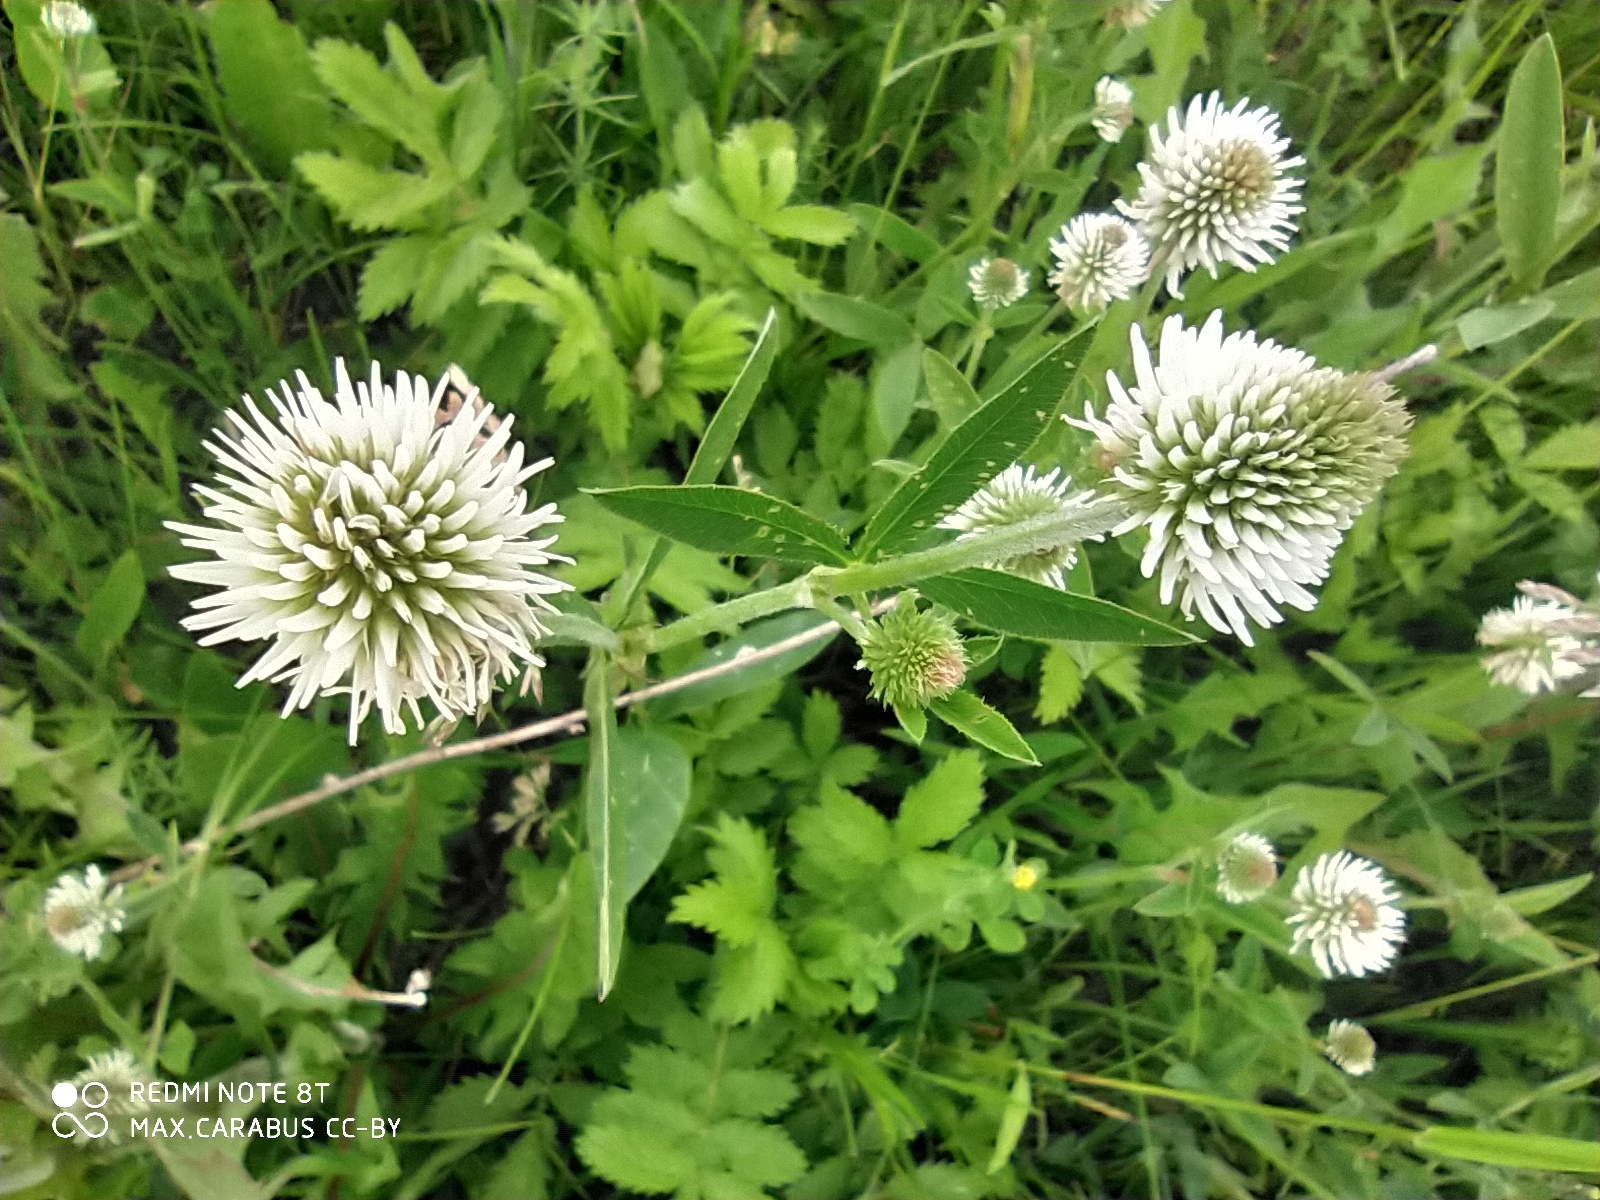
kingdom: Plantae
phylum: Tracheophyta
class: Magnoliopsida
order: Fabales
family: Fabaceae
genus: Trifolium
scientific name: Trifolium montanum
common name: Mountain clover
